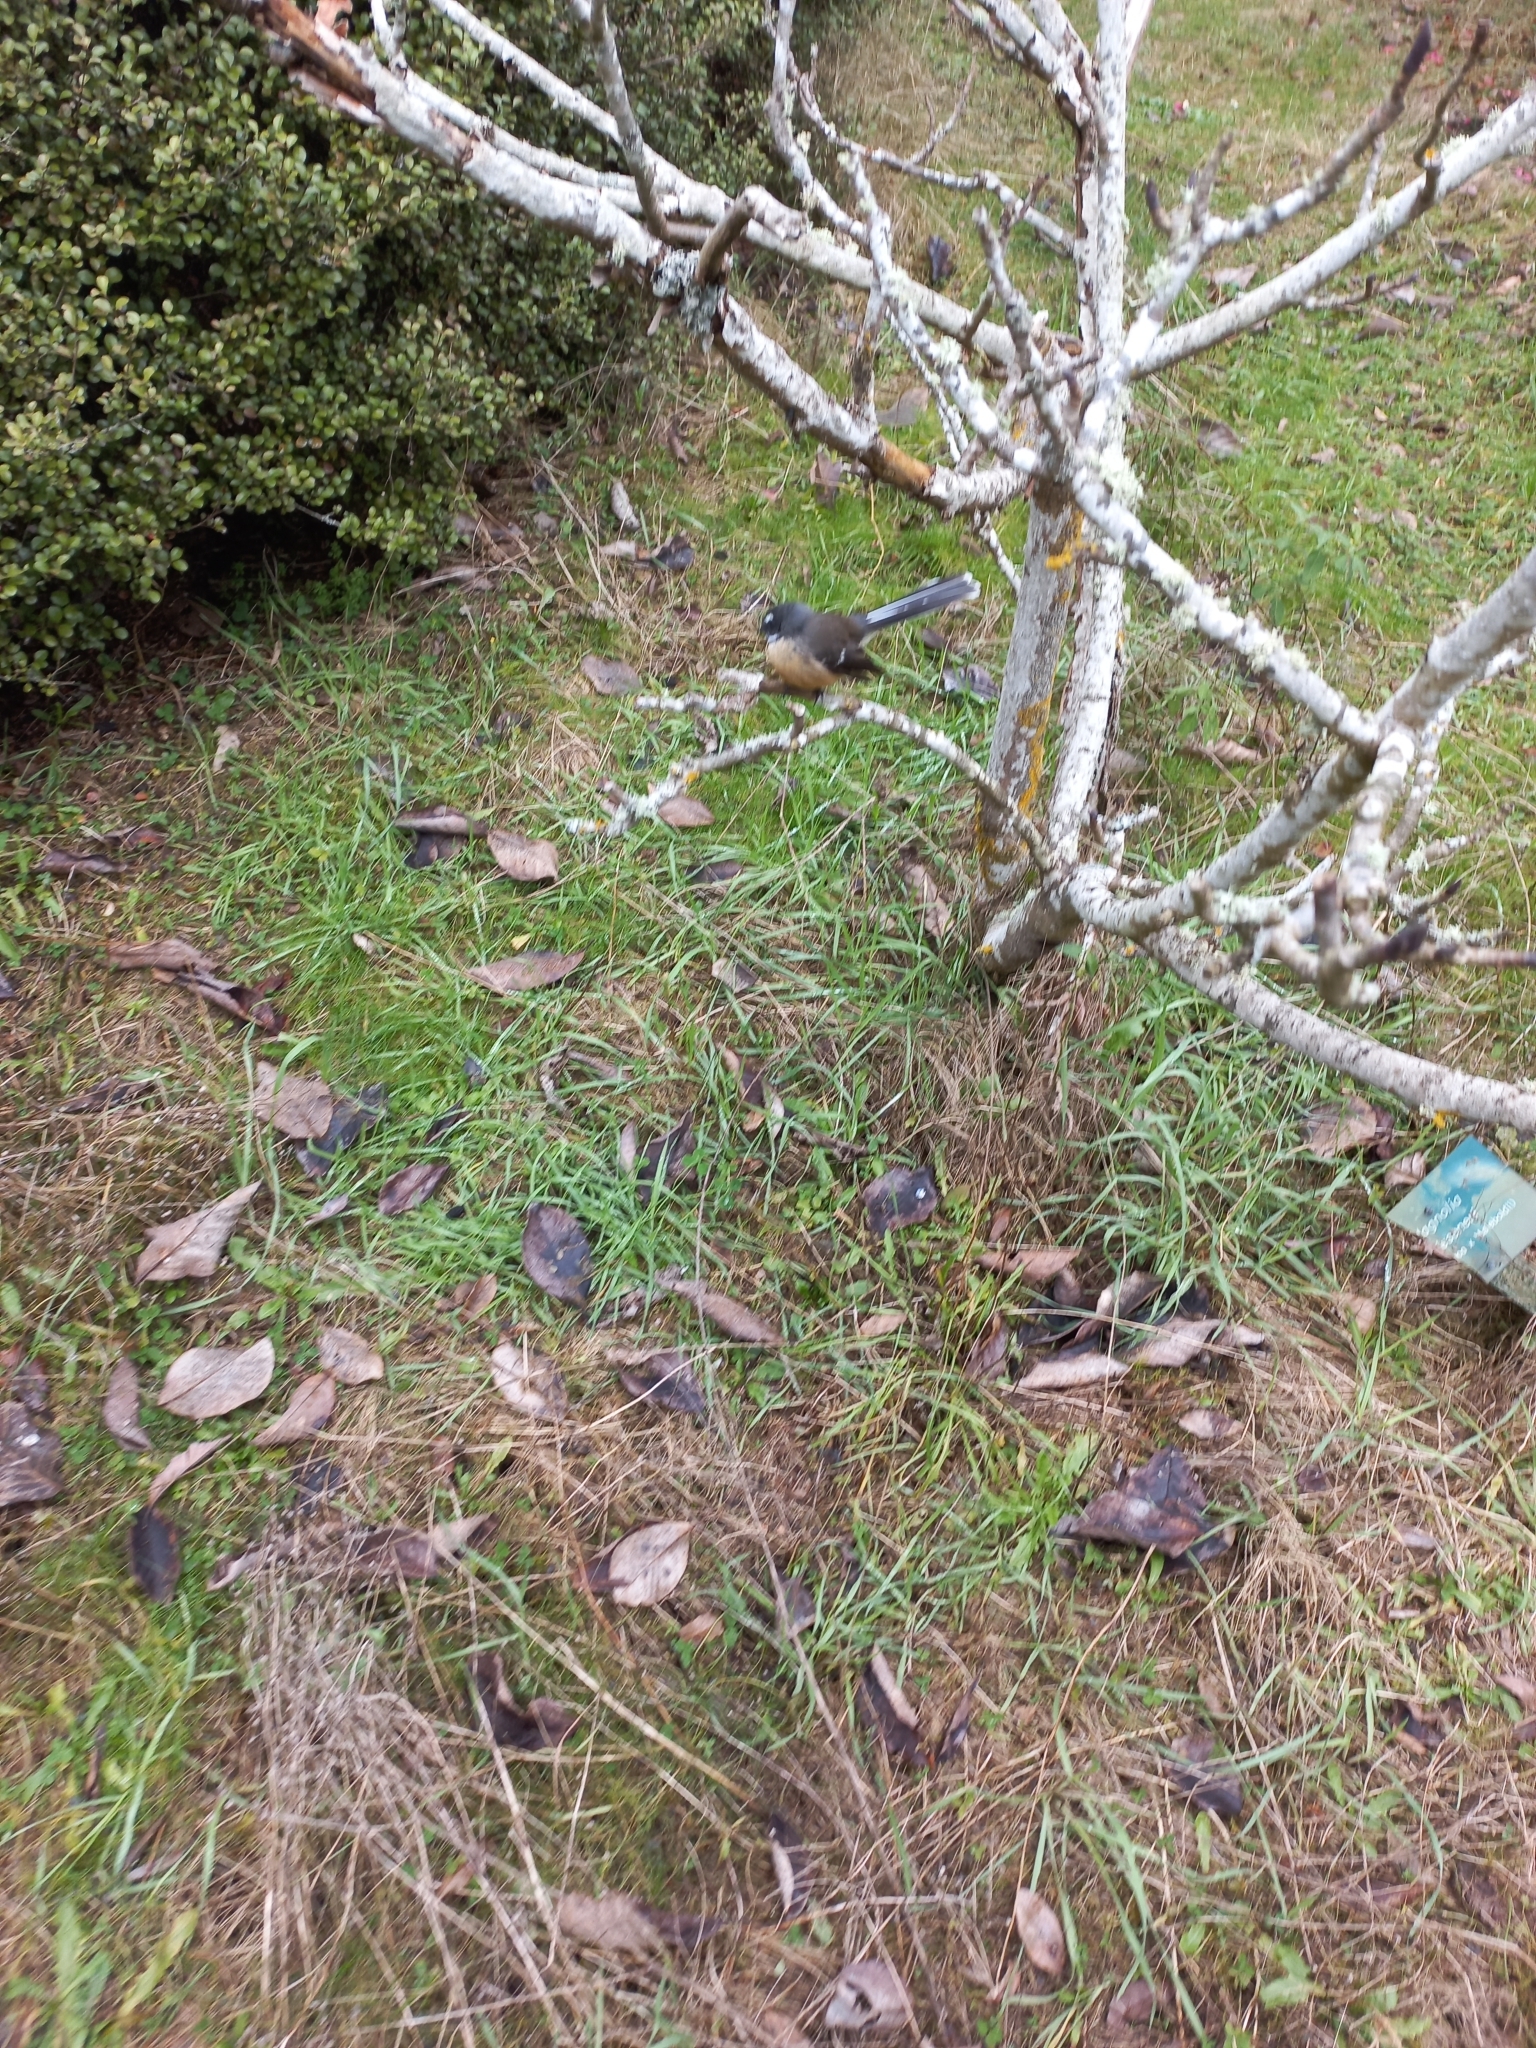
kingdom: Animalia
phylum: Chordata
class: Aves
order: Passeriformes
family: Rhipiduridae
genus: Rhipidura
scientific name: Rhipidura fuliginosa
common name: New zealand fantail
